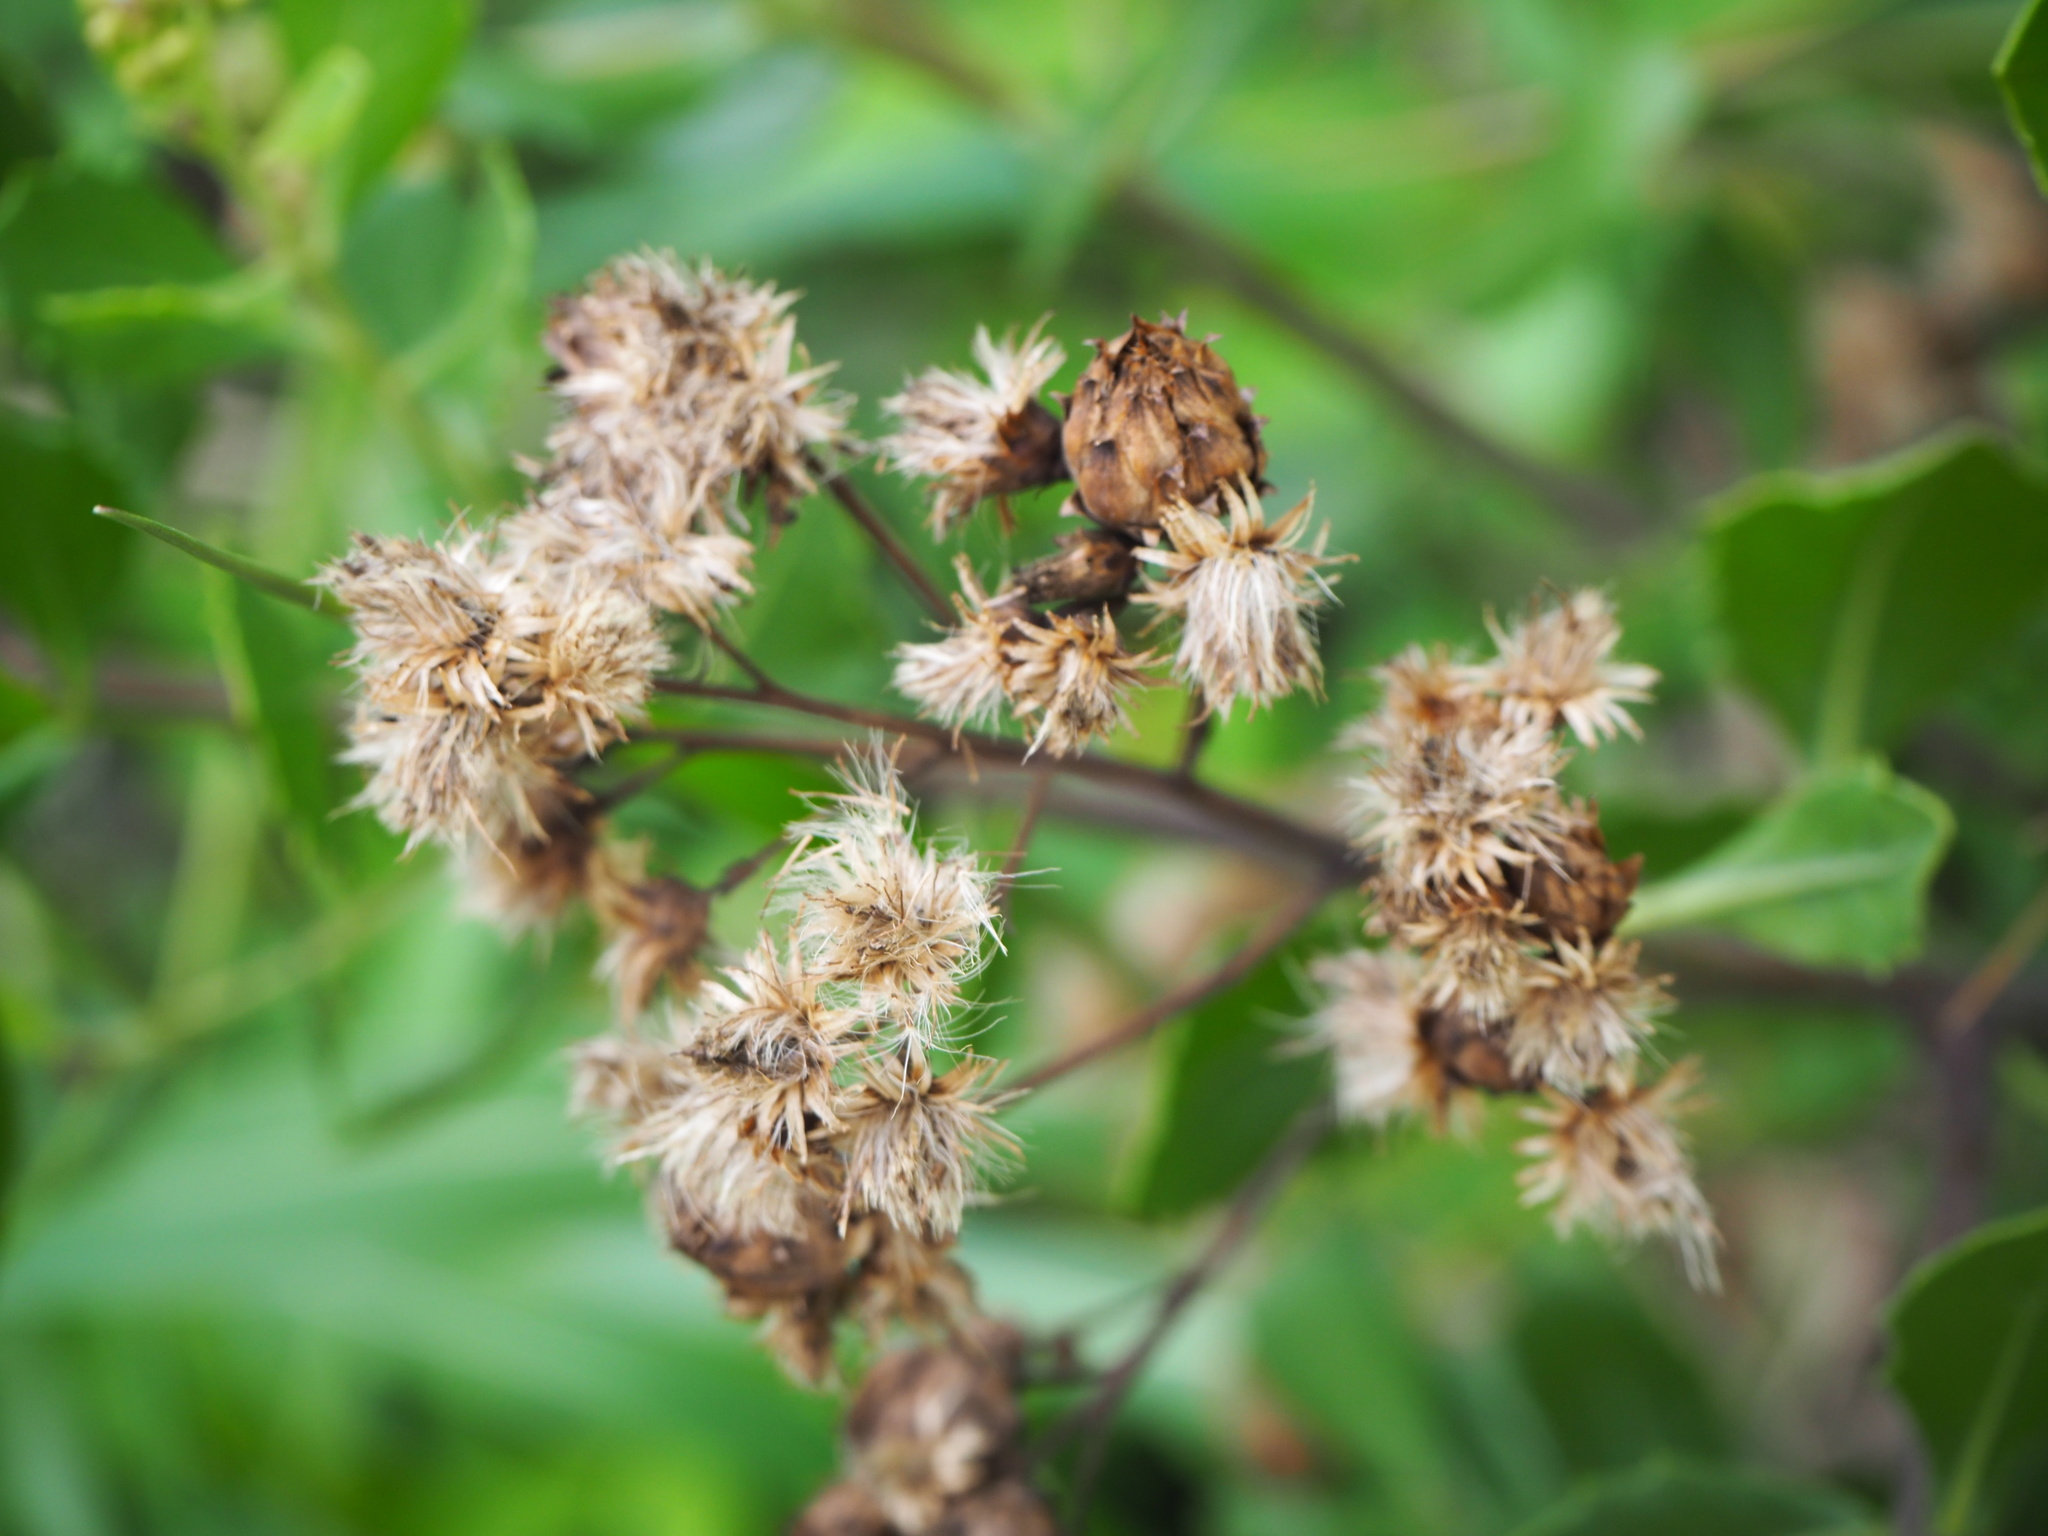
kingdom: Plantae
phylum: Tracheophyta
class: Magnoliopsida
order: Asterales
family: Asteraceae
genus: Pluchea
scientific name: Pluchea indica
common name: Indian fleabane
